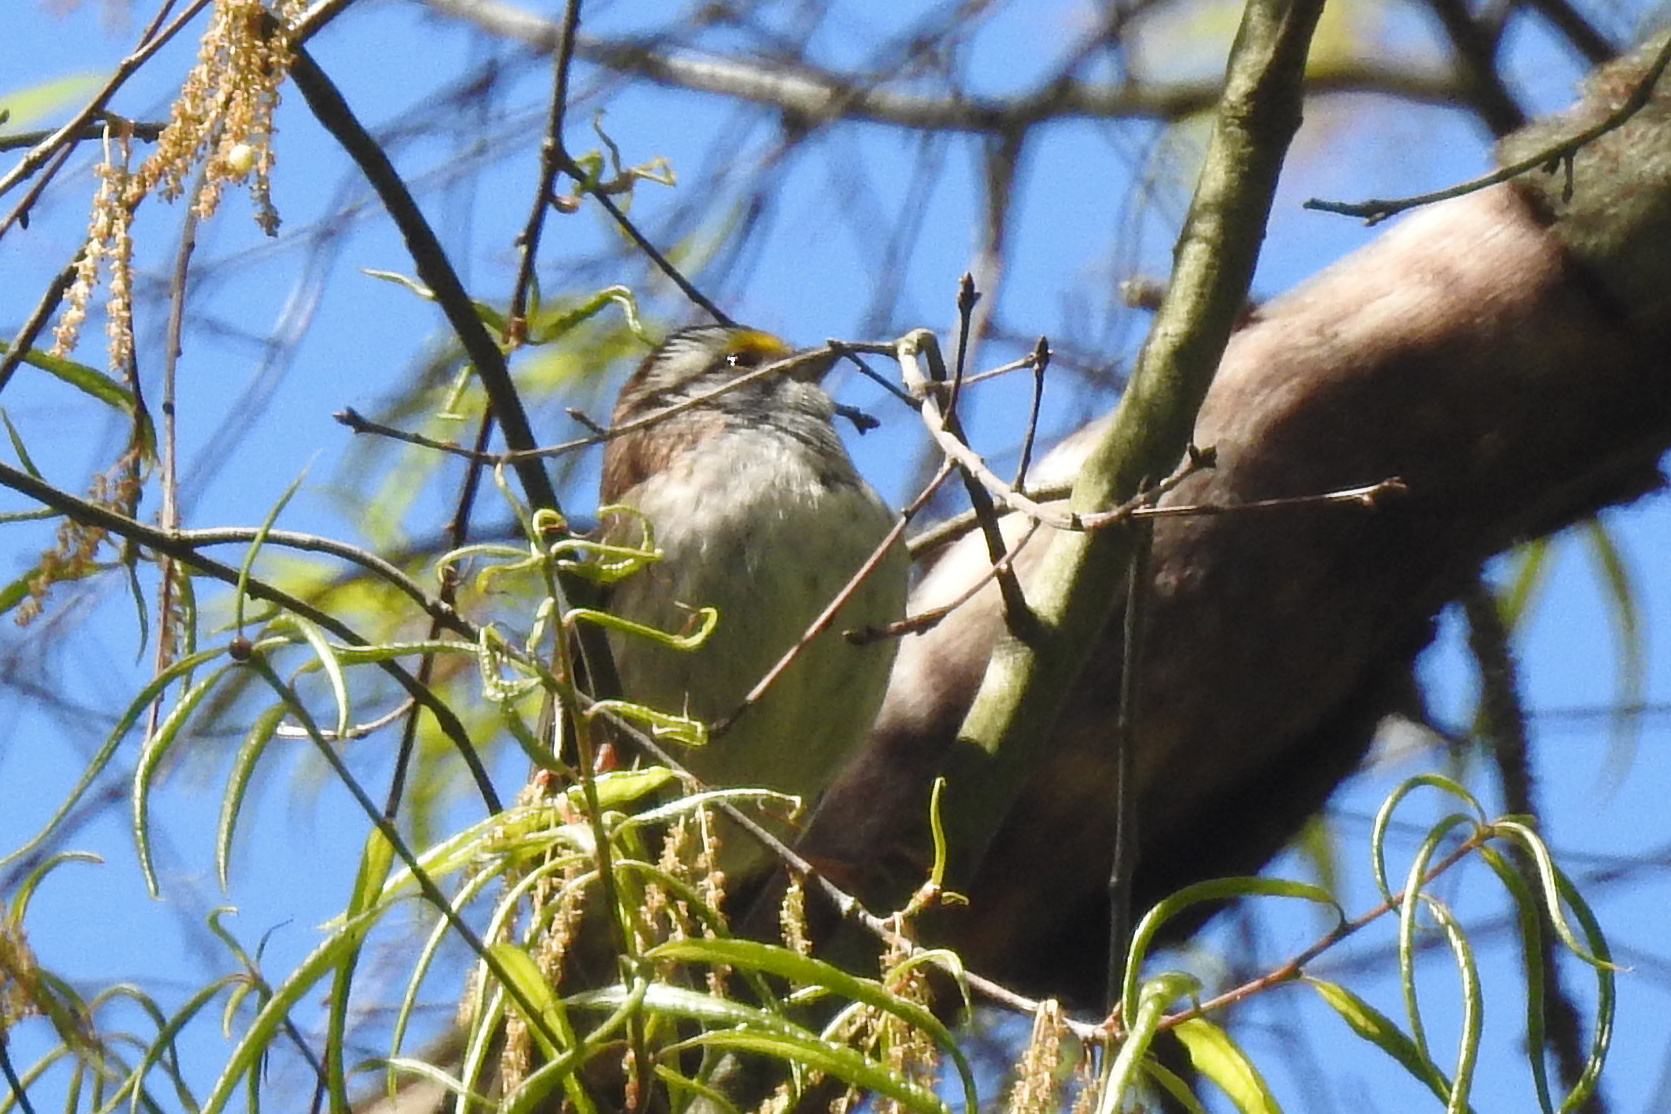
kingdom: Animalia
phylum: Chordata
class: Aves
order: Passeriformes
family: Passerellidae
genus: Zonotrichia
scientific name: Zonotrichia albicollis
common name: White-throated sparrow
